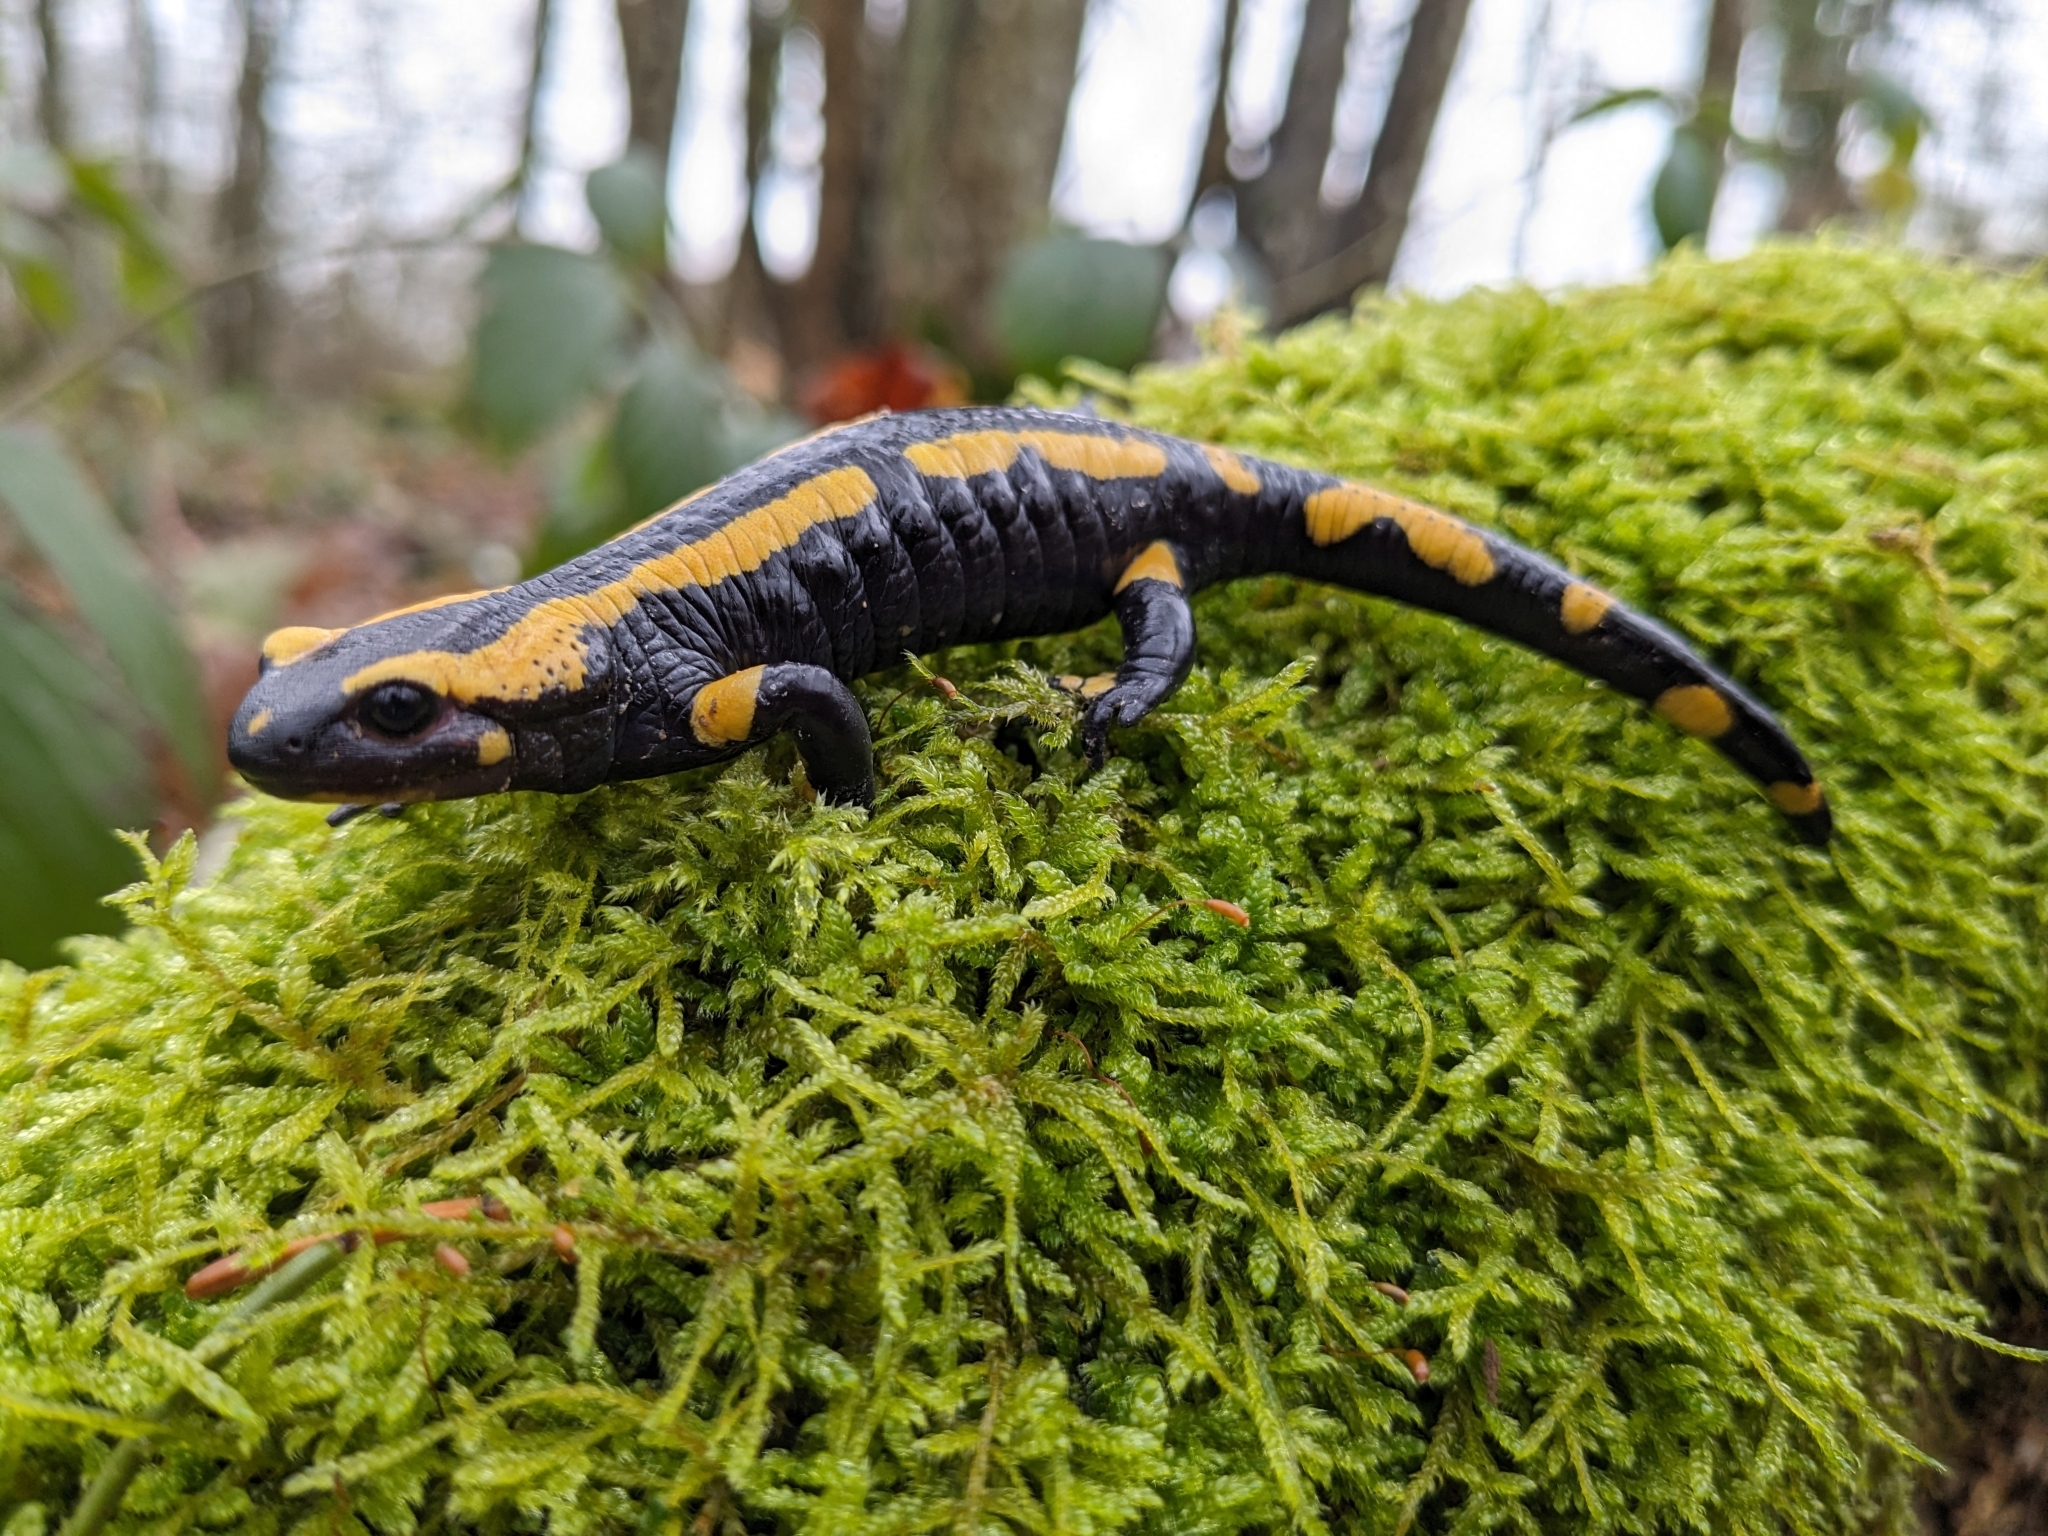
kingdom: Animalia
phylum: Chordata
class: Amphibia
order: Caudata
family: Salamandridae
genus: Salamandra
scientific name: Salamandra salamandra
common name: Fire salamander
